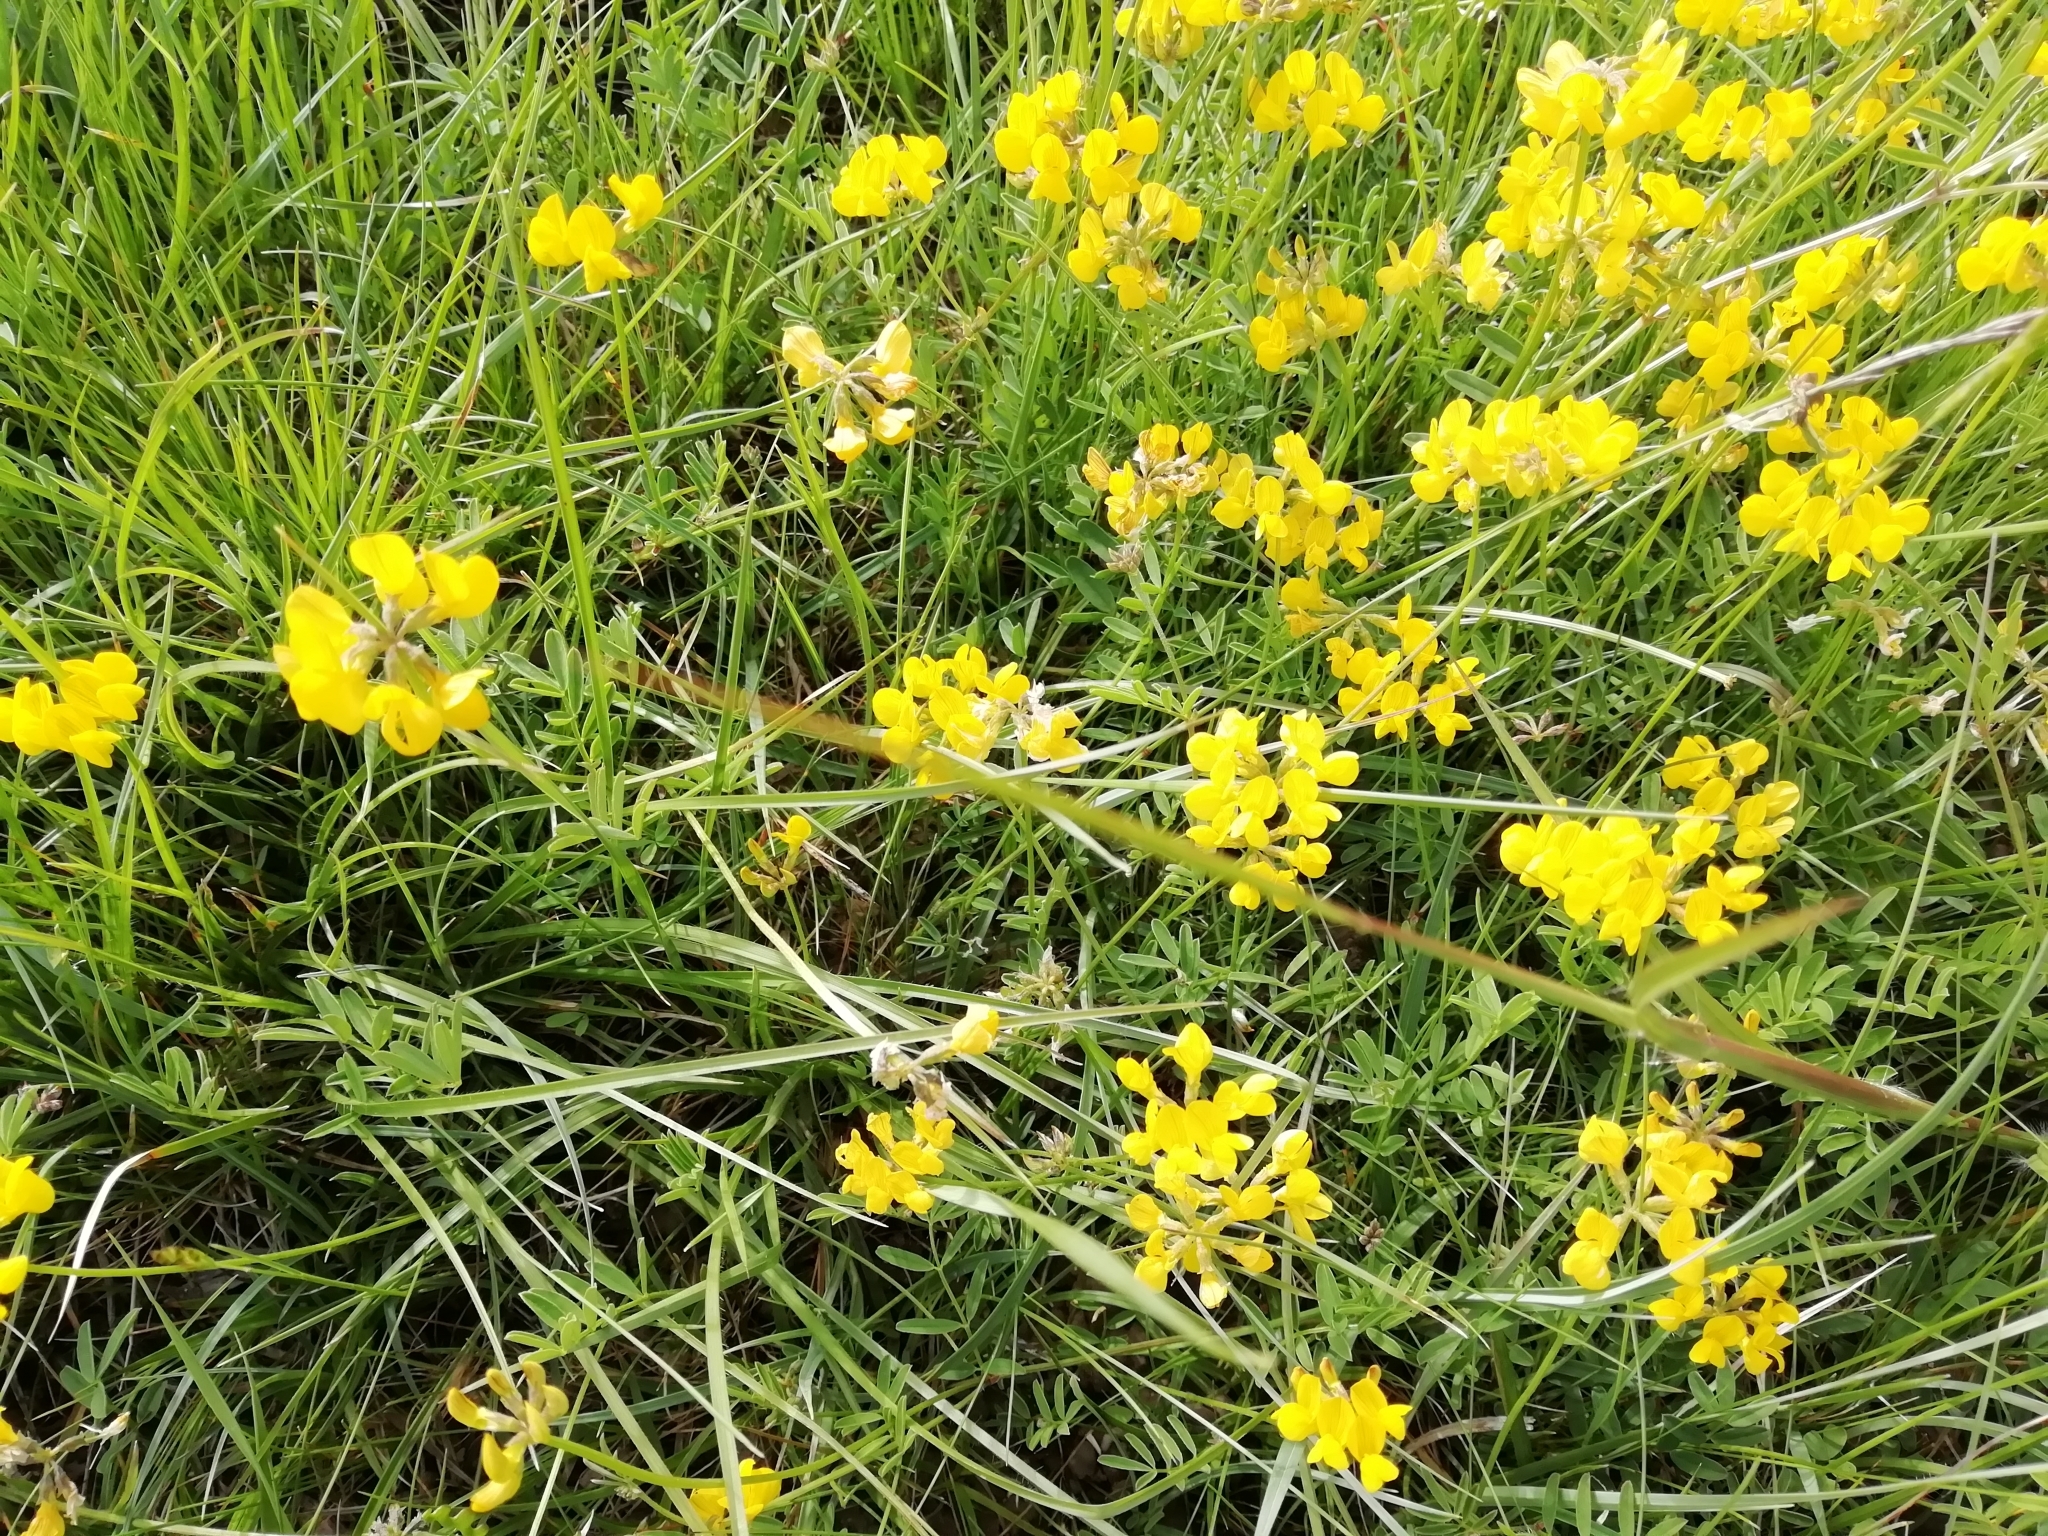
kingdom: Plantae
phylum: Tracheophyta
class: Magnoliopsida
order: Fabales
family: Fabaceae
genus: Hippocrepis
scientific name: Hippocrepis comosa
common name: Horseshoe vetch
